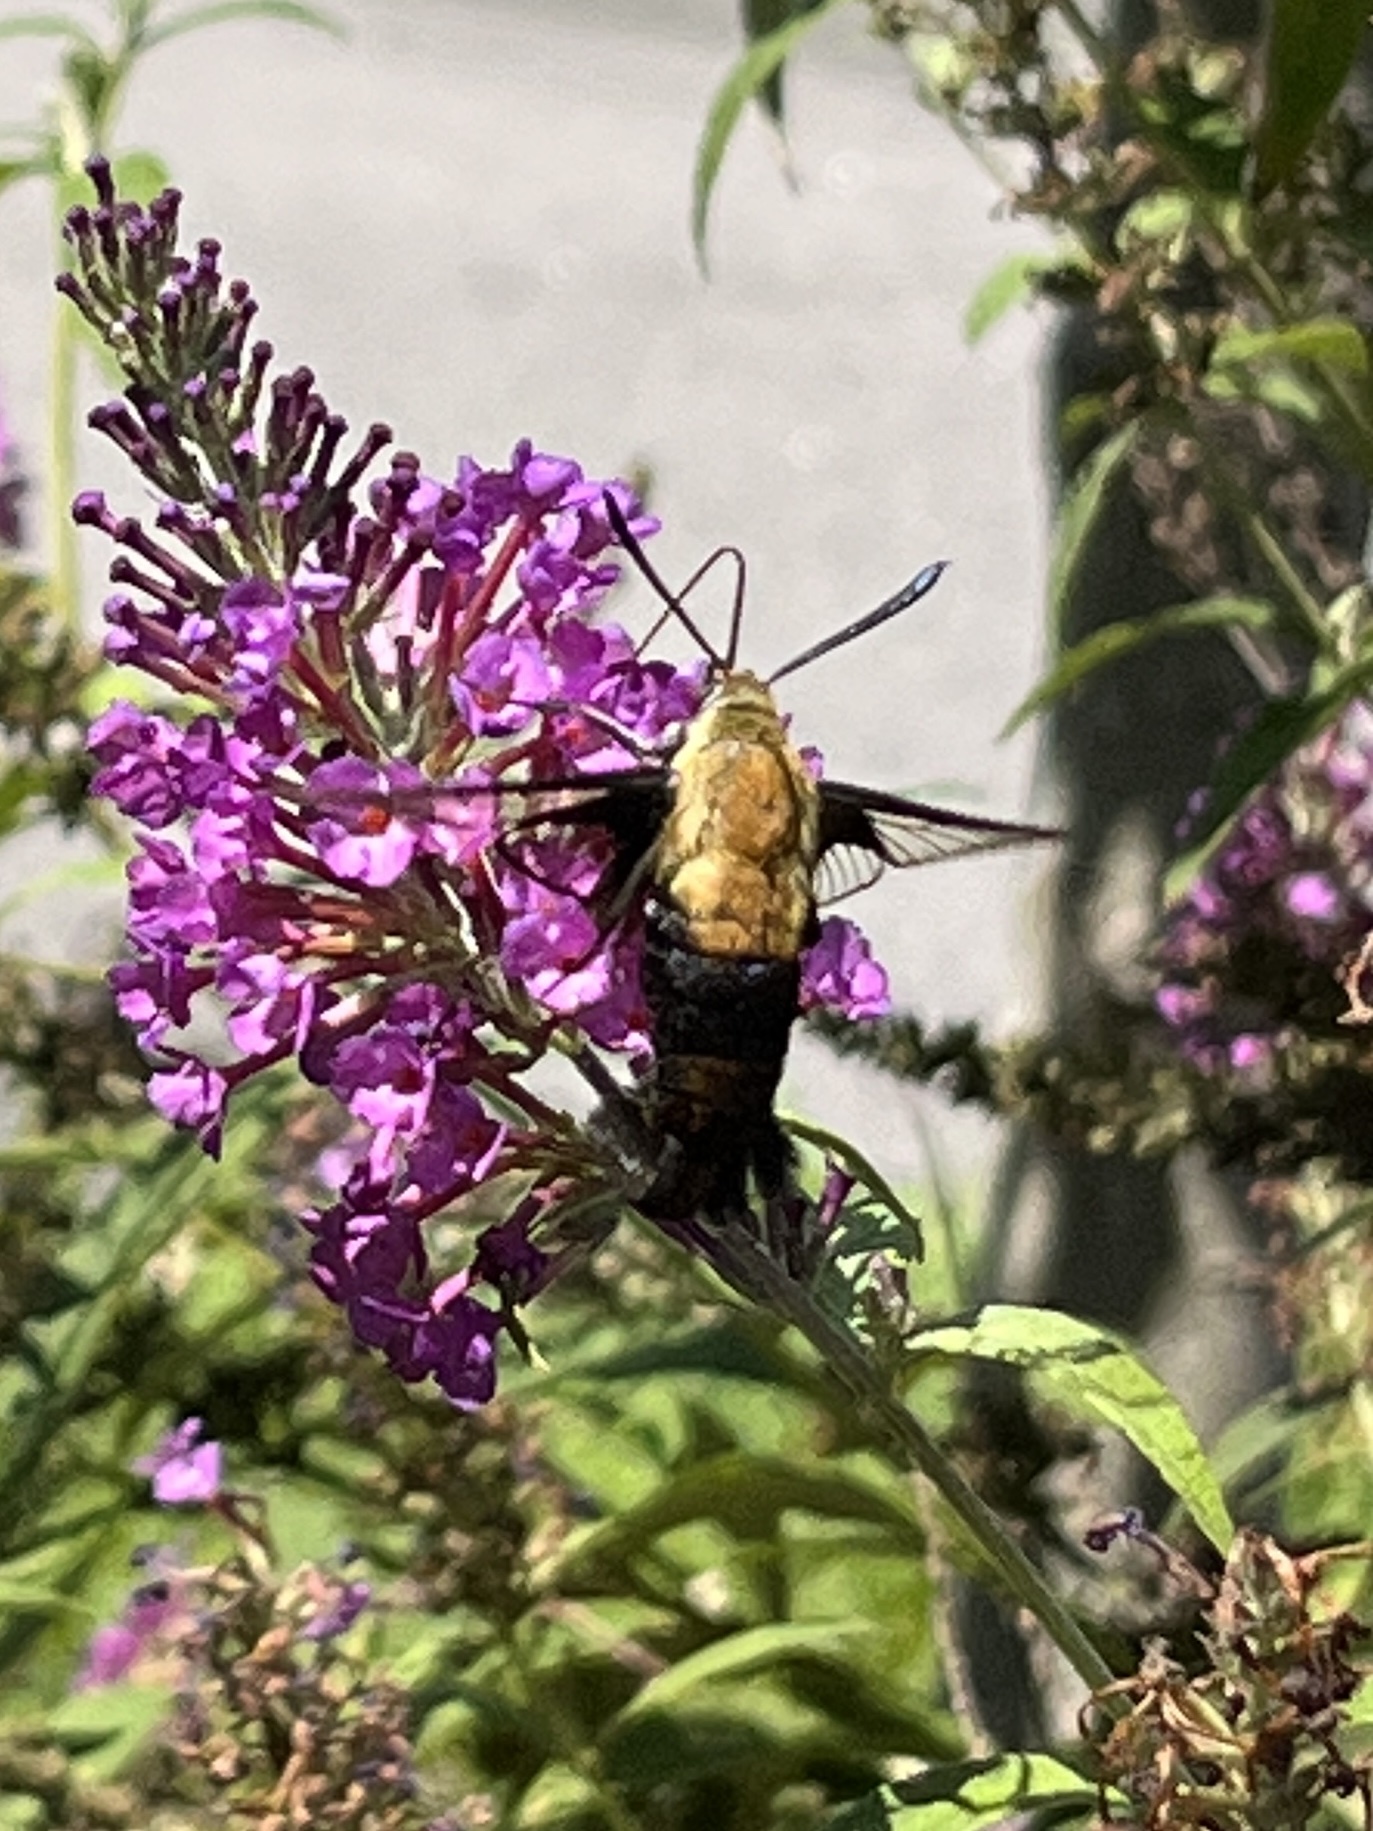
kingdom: Animalia
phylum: Arthropoda
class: Insecta
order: Lepidoptera
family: Sphingidae
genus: Hemaris
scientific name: Hemaris diffinis
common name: Bumblebee moth
